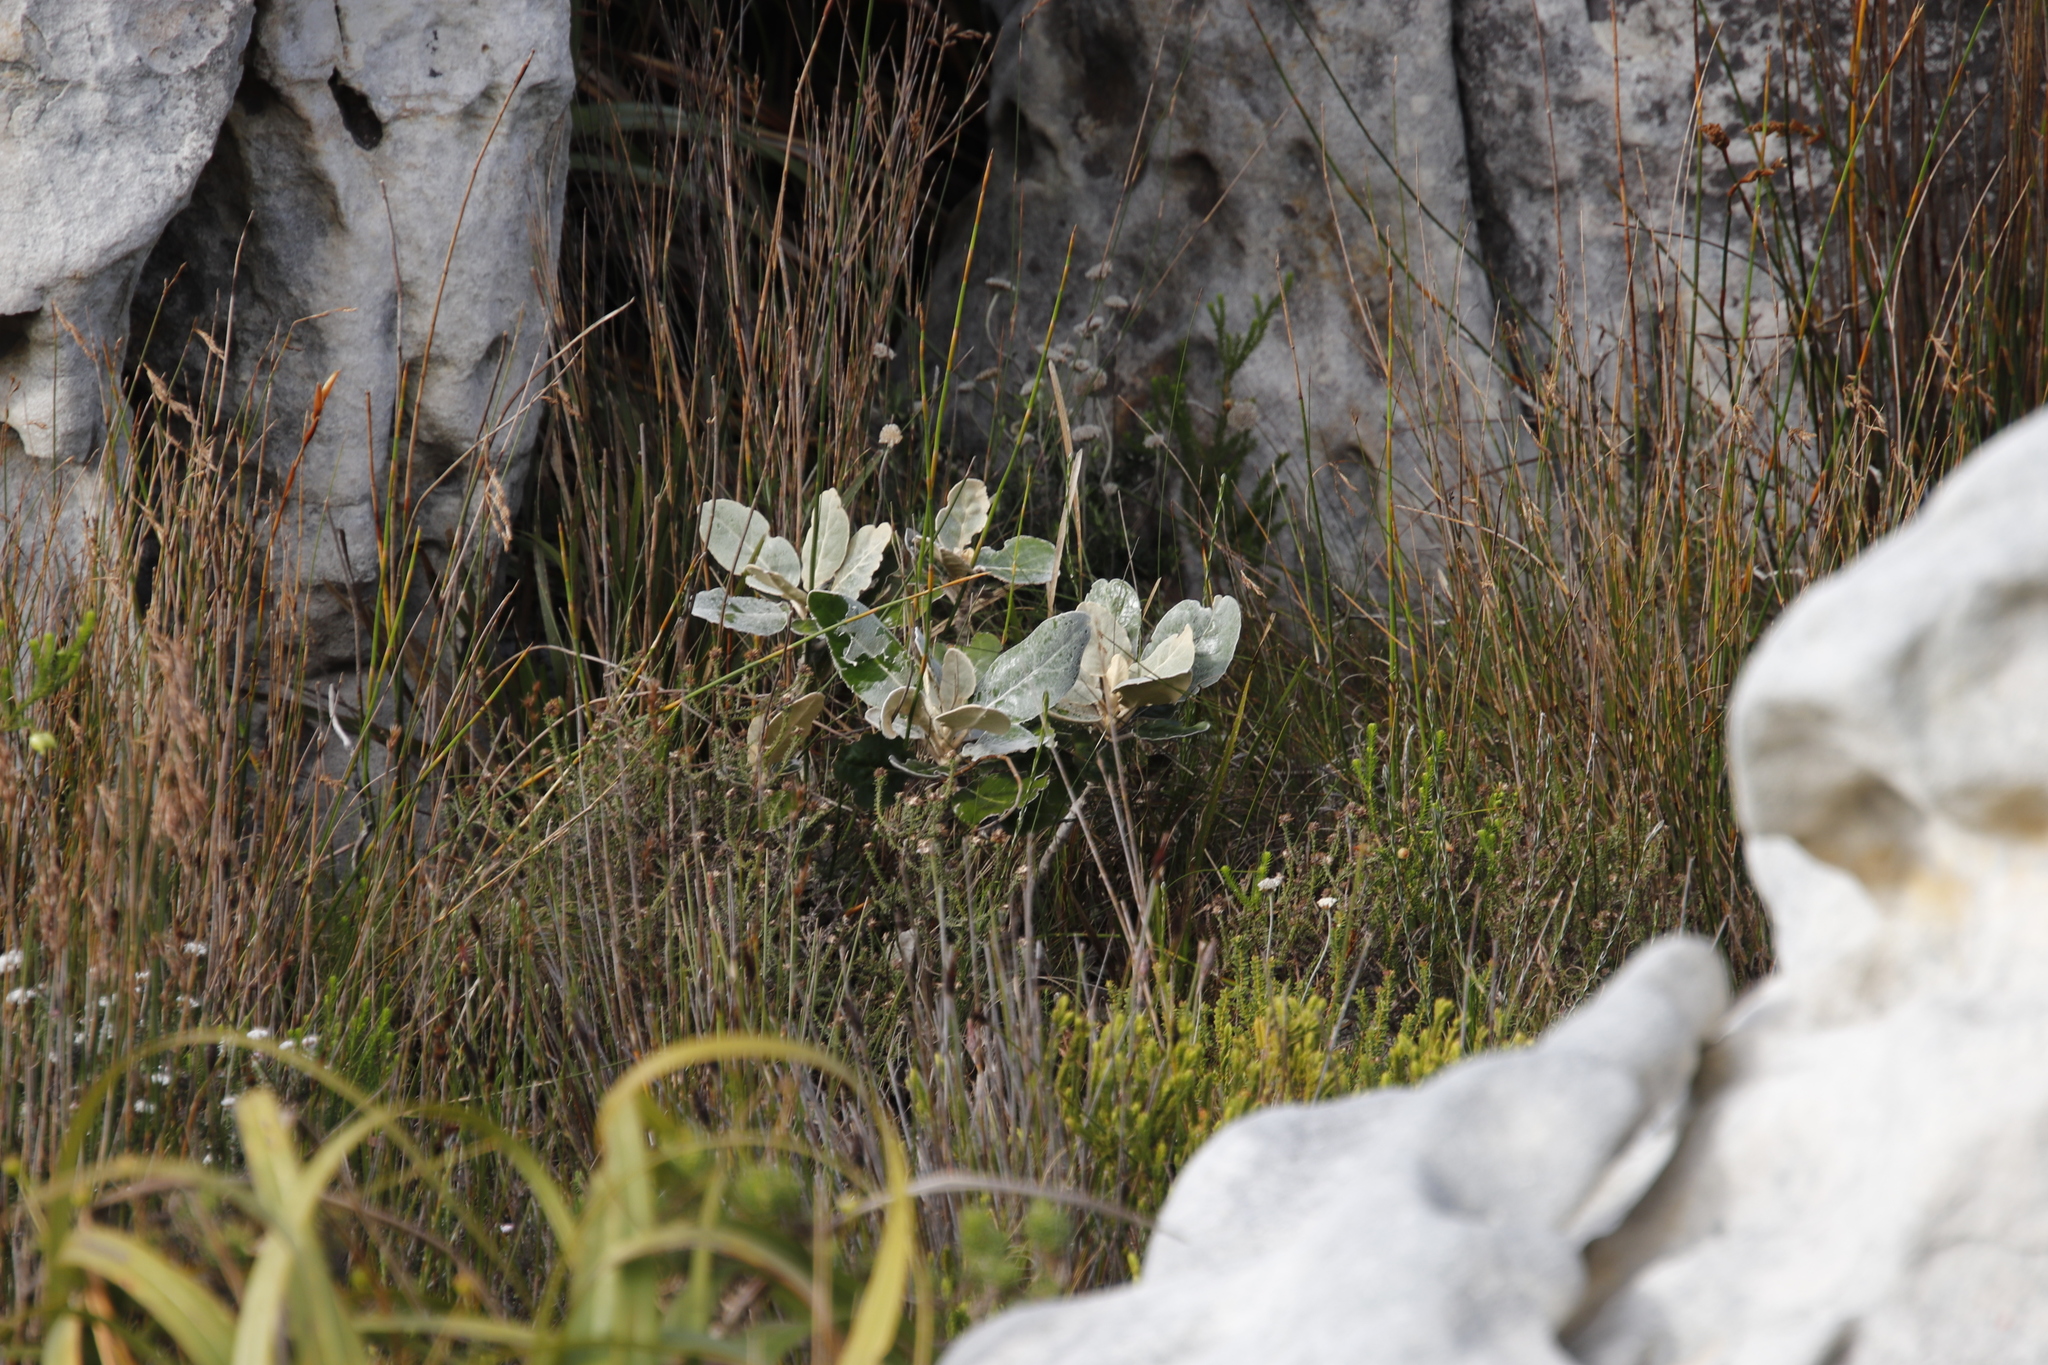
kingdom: Plantae
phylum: Tracheophyta
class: Magnoliopsida
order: Apiales
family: Apiaceae
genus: Hermas
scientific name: Hermas villosa
